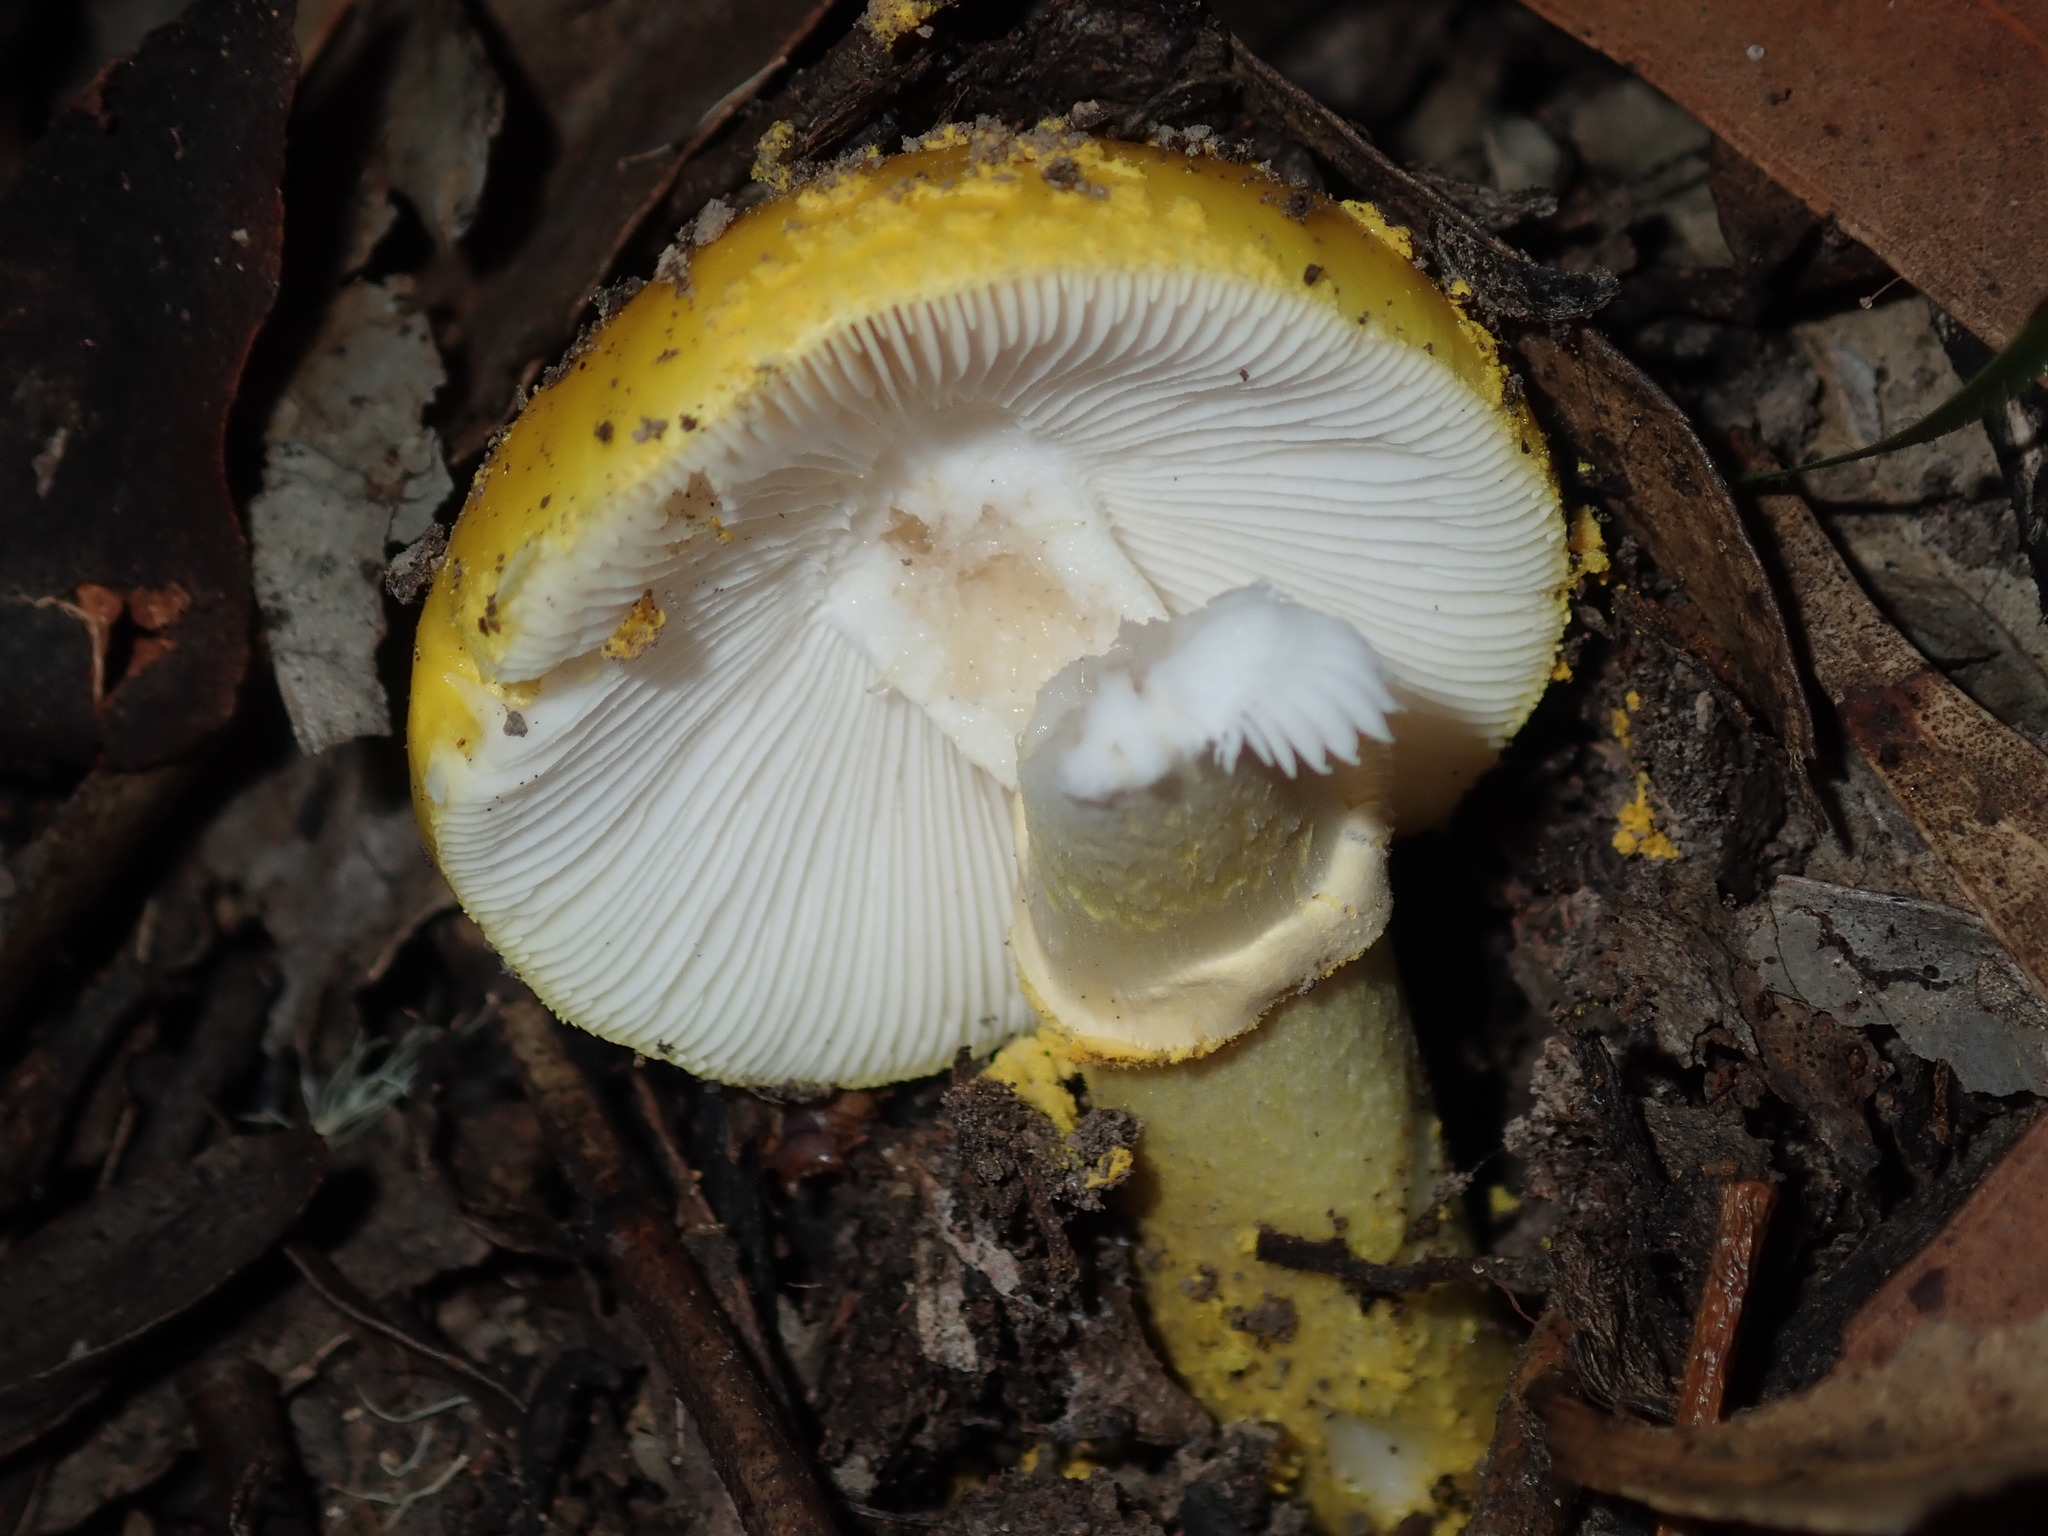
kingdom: Fungi
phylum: Basidiomycota
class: Agaricomycetes
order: Agaricales
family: Amanitaceae
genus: Amanita
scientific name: Amanita flavella
